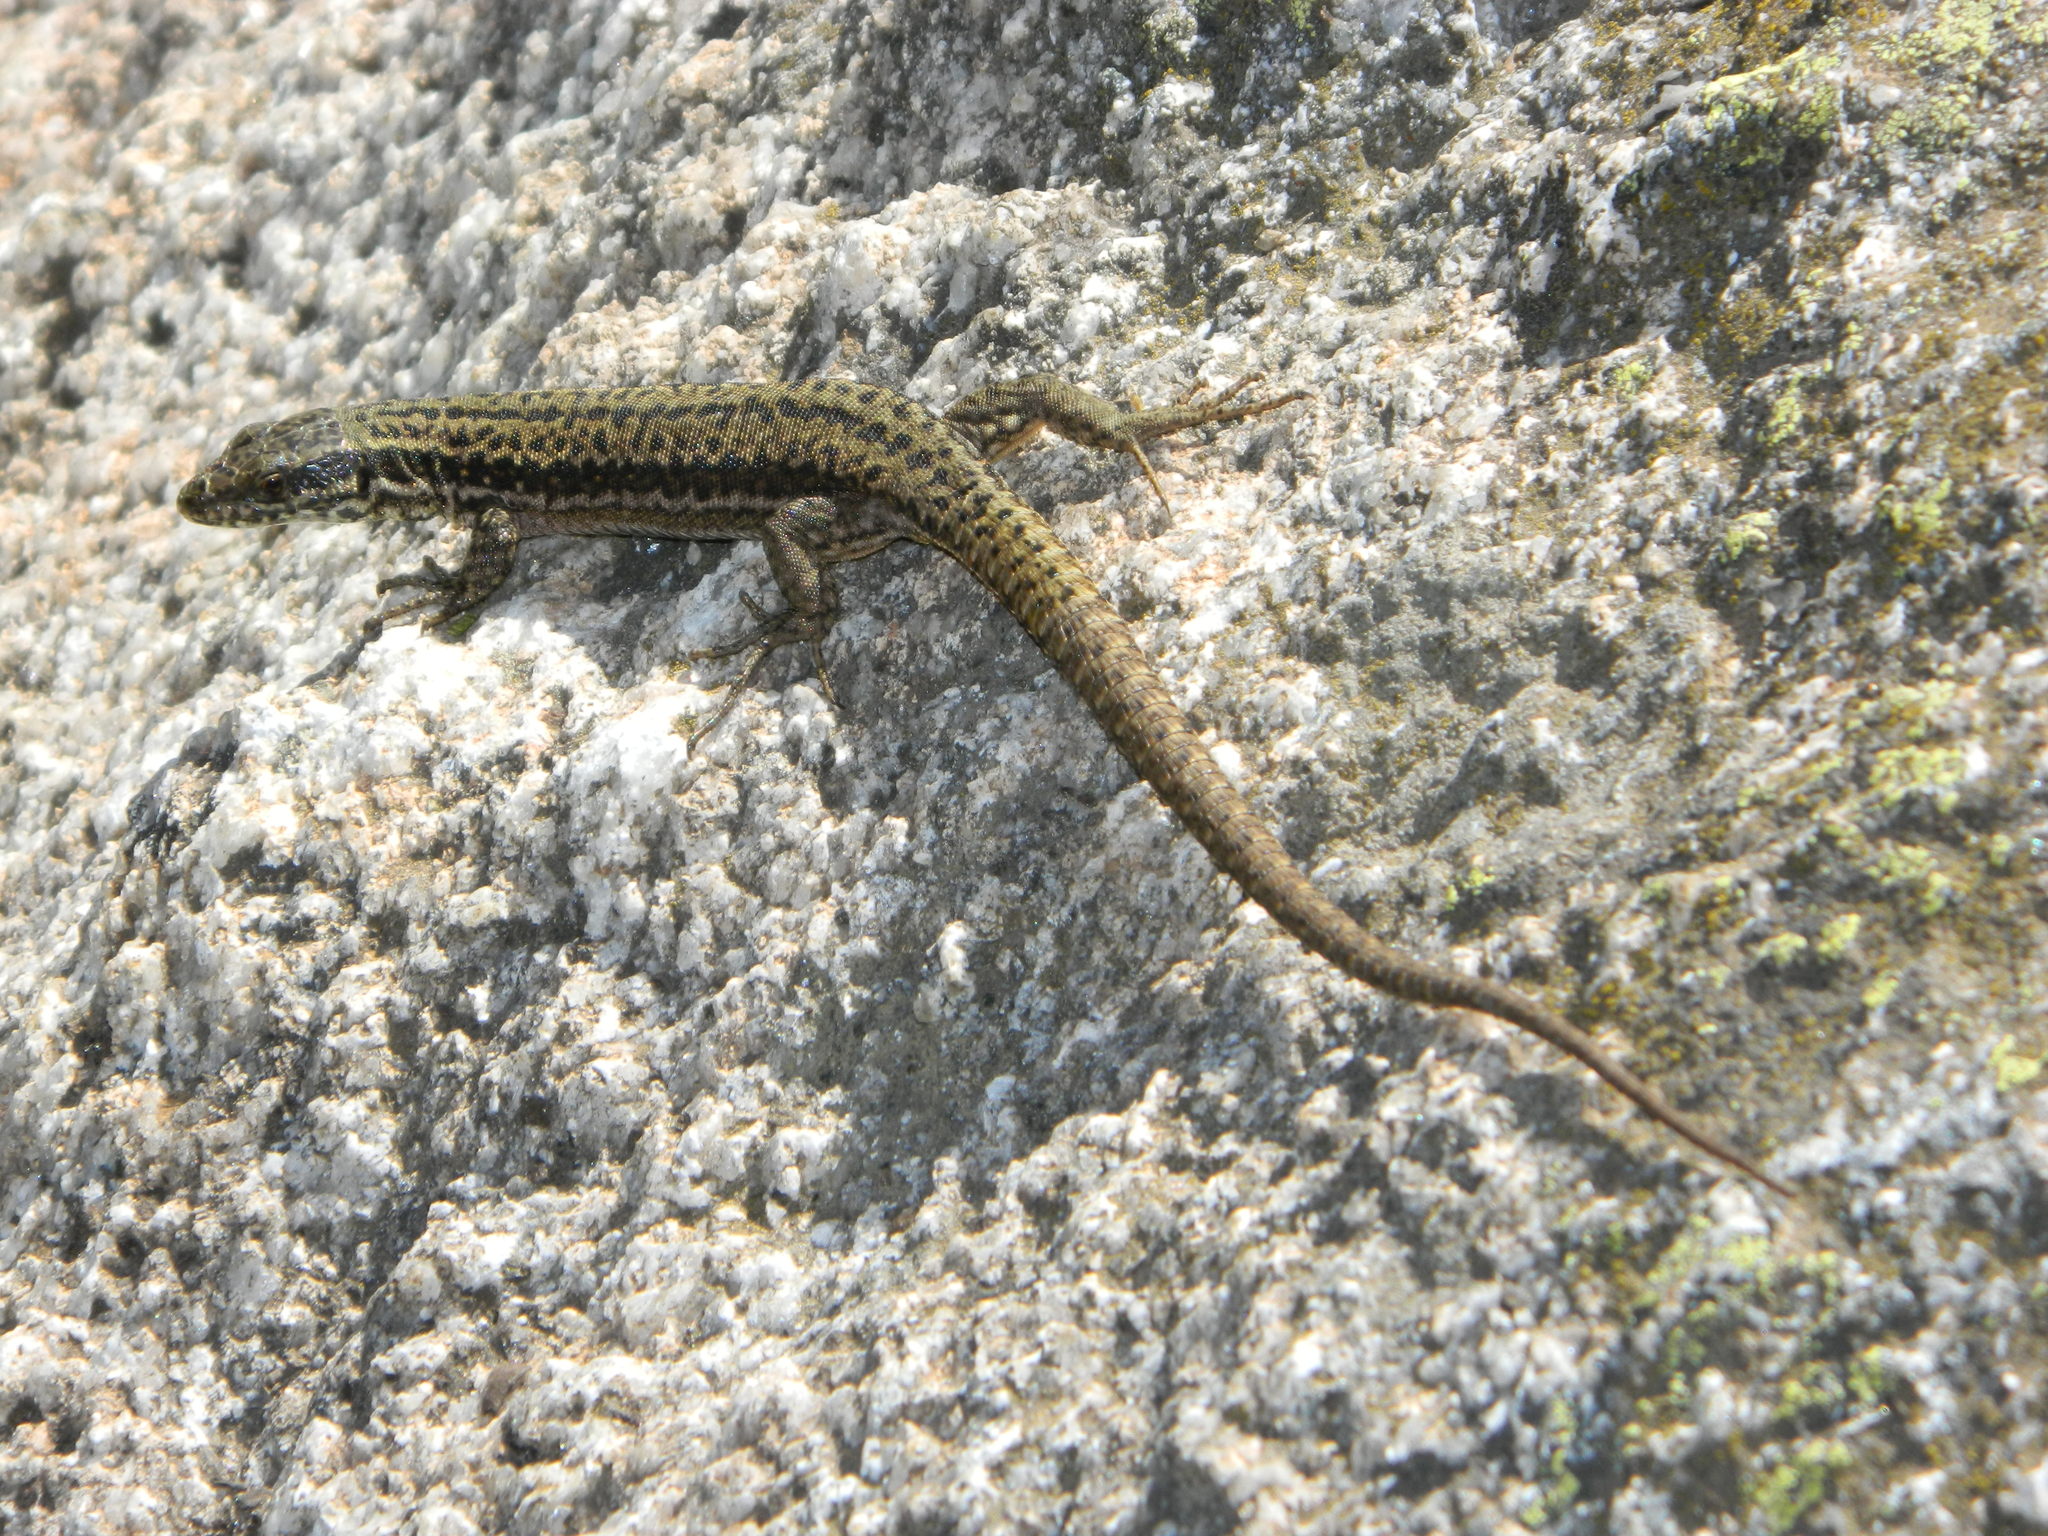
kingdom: Animalia
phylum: Chordata
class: Squamata
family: Lacertidae
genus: Podarcis
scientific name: Podarcis muralis
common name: Common wall lizard
